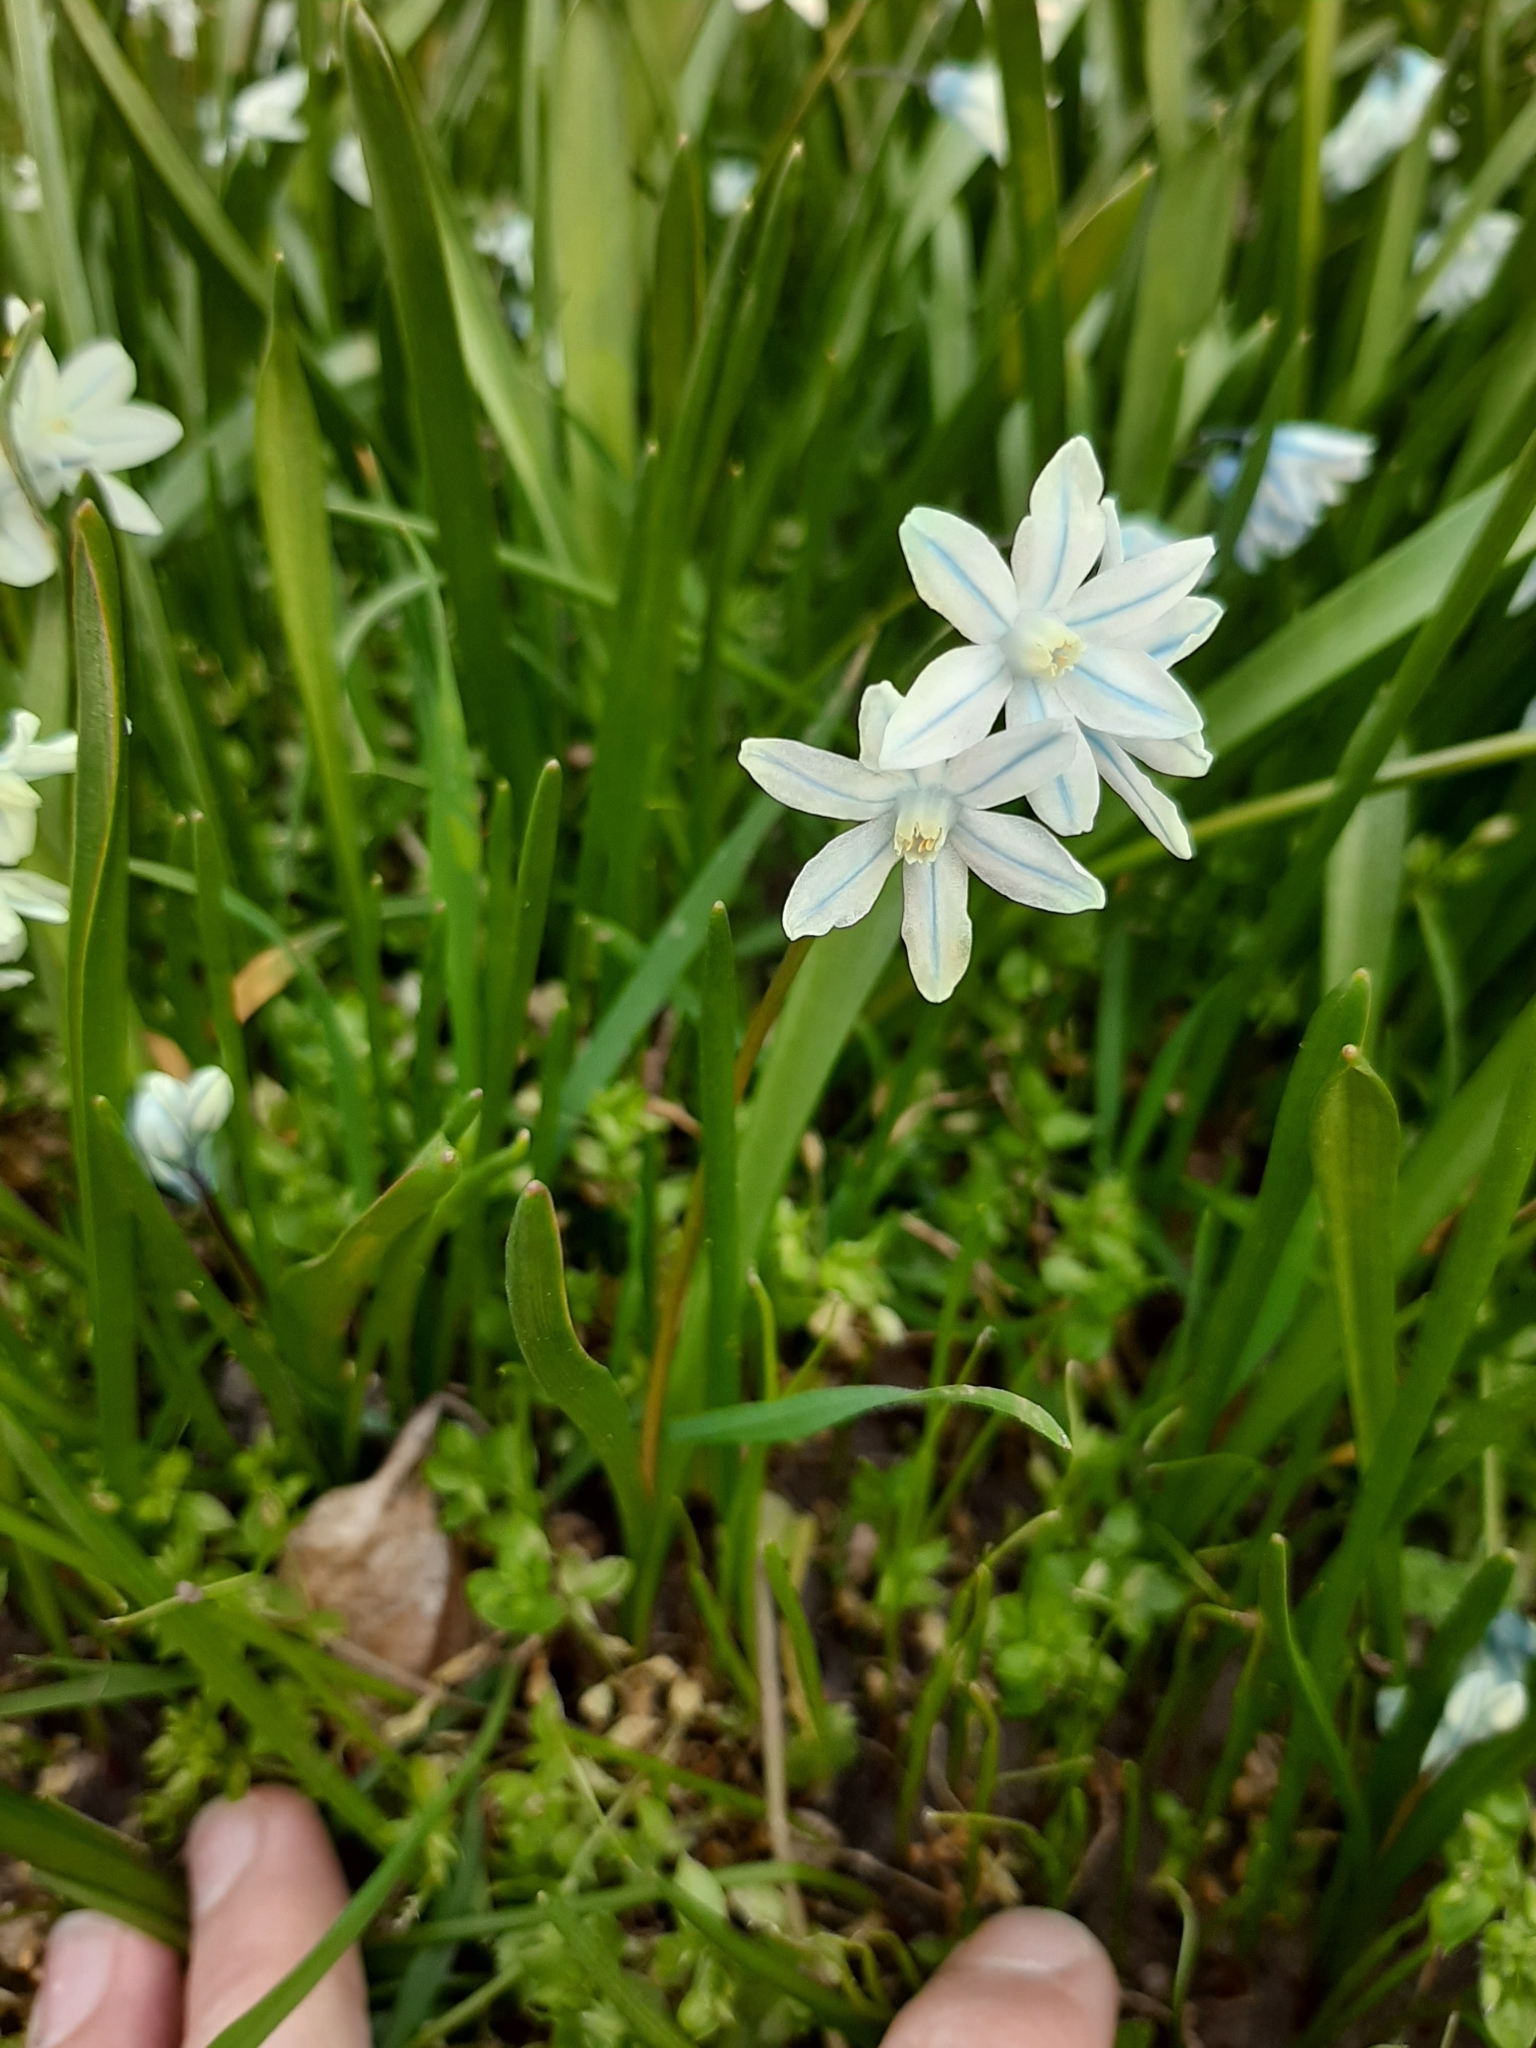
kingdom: Plantae
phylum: Tracheophyta
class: Liliopsida
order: Asparagales
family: Asparagaceae
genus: Puschkinia
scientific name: Puschkinia scilloides
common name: Striped squill
